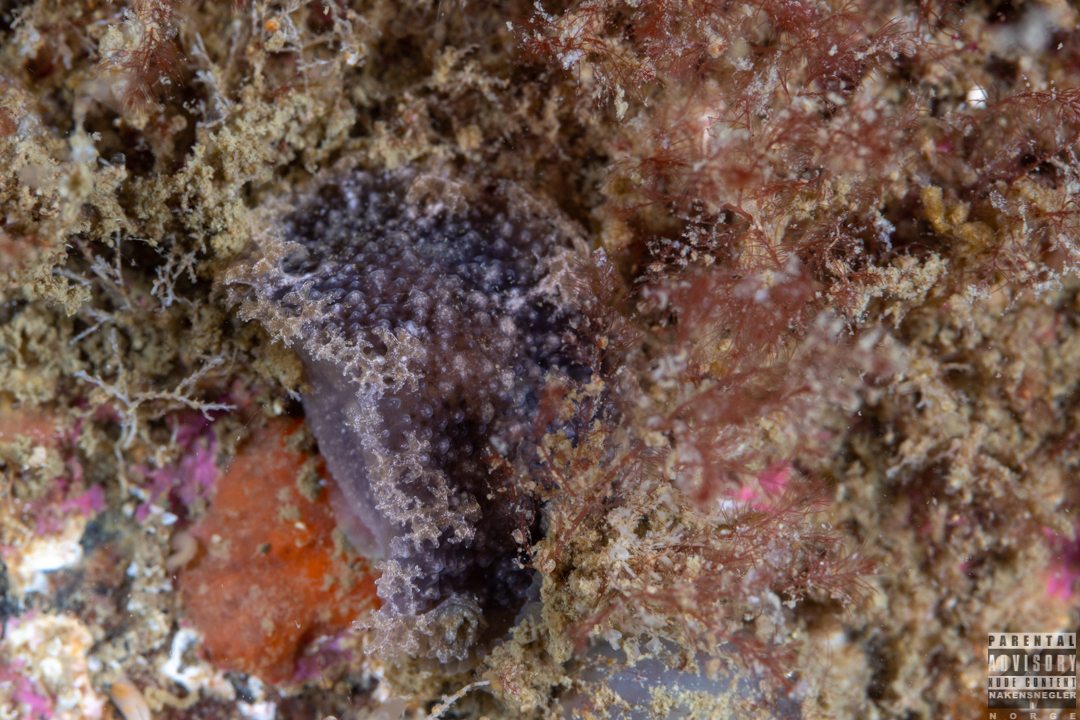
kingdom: Animalia
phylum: Mollusca
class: Gastropoda
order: Nudibranchia
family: Tritoniidae
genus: Tritonia
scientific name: Tritonia hombergii
